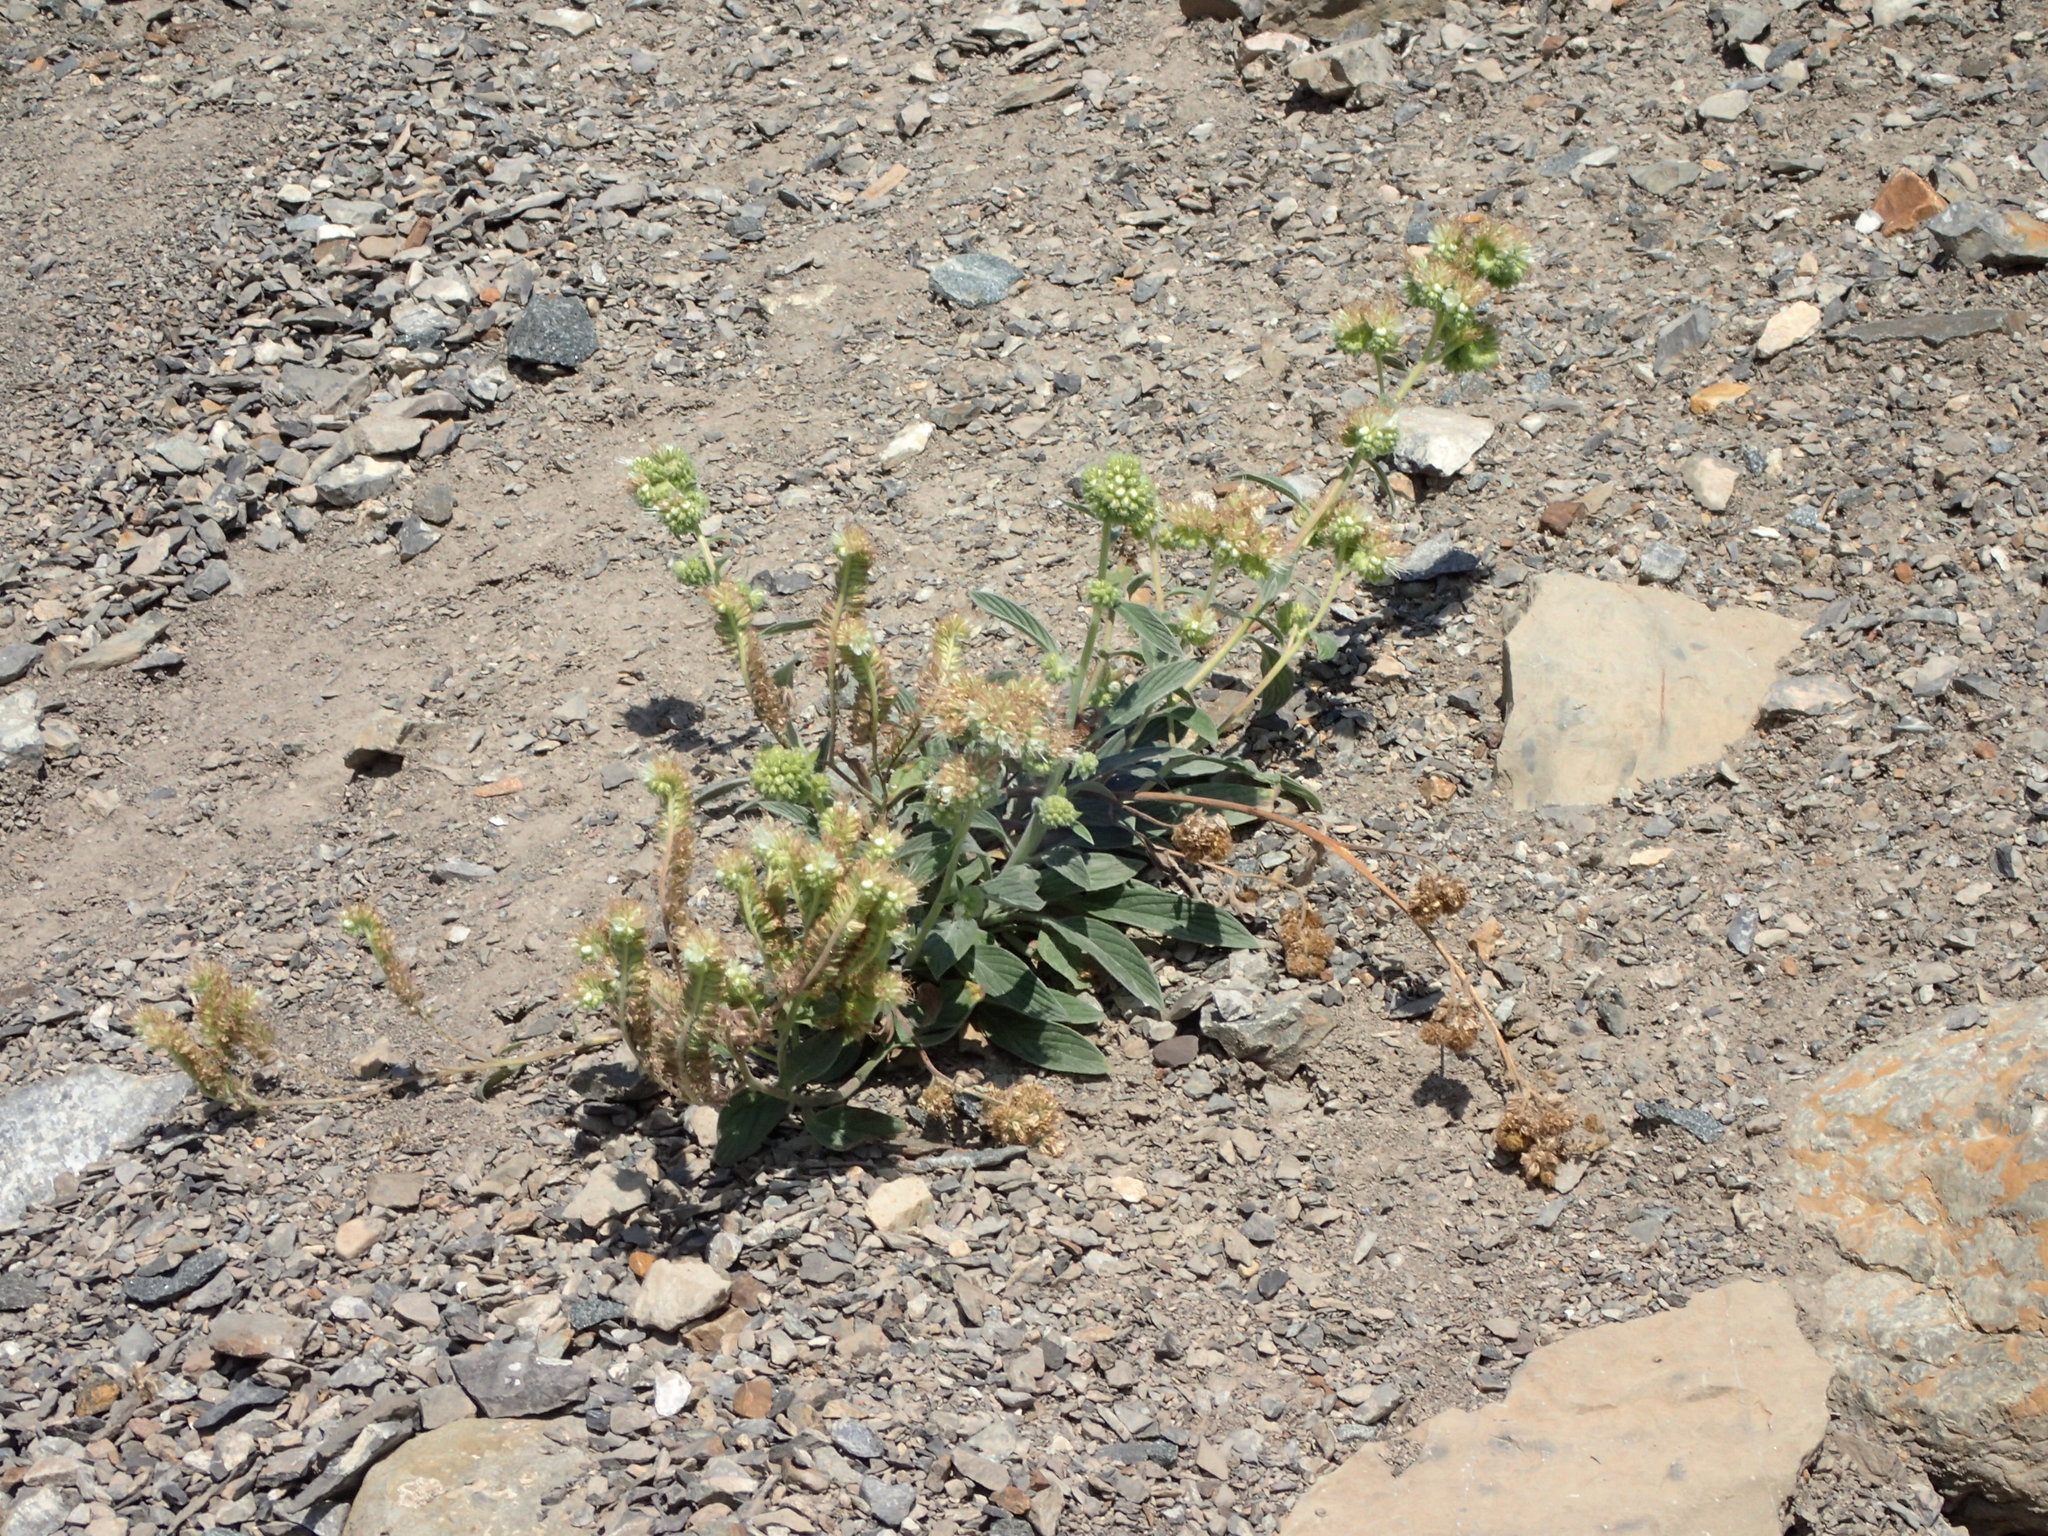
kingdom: Plantae
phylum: Tracheophyta
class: Magnoliopsida
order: Boraginales
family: Hydrophyllaceae
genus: Phacelia
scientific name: Phacelia hastata
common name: Silver-leaved phacelia
